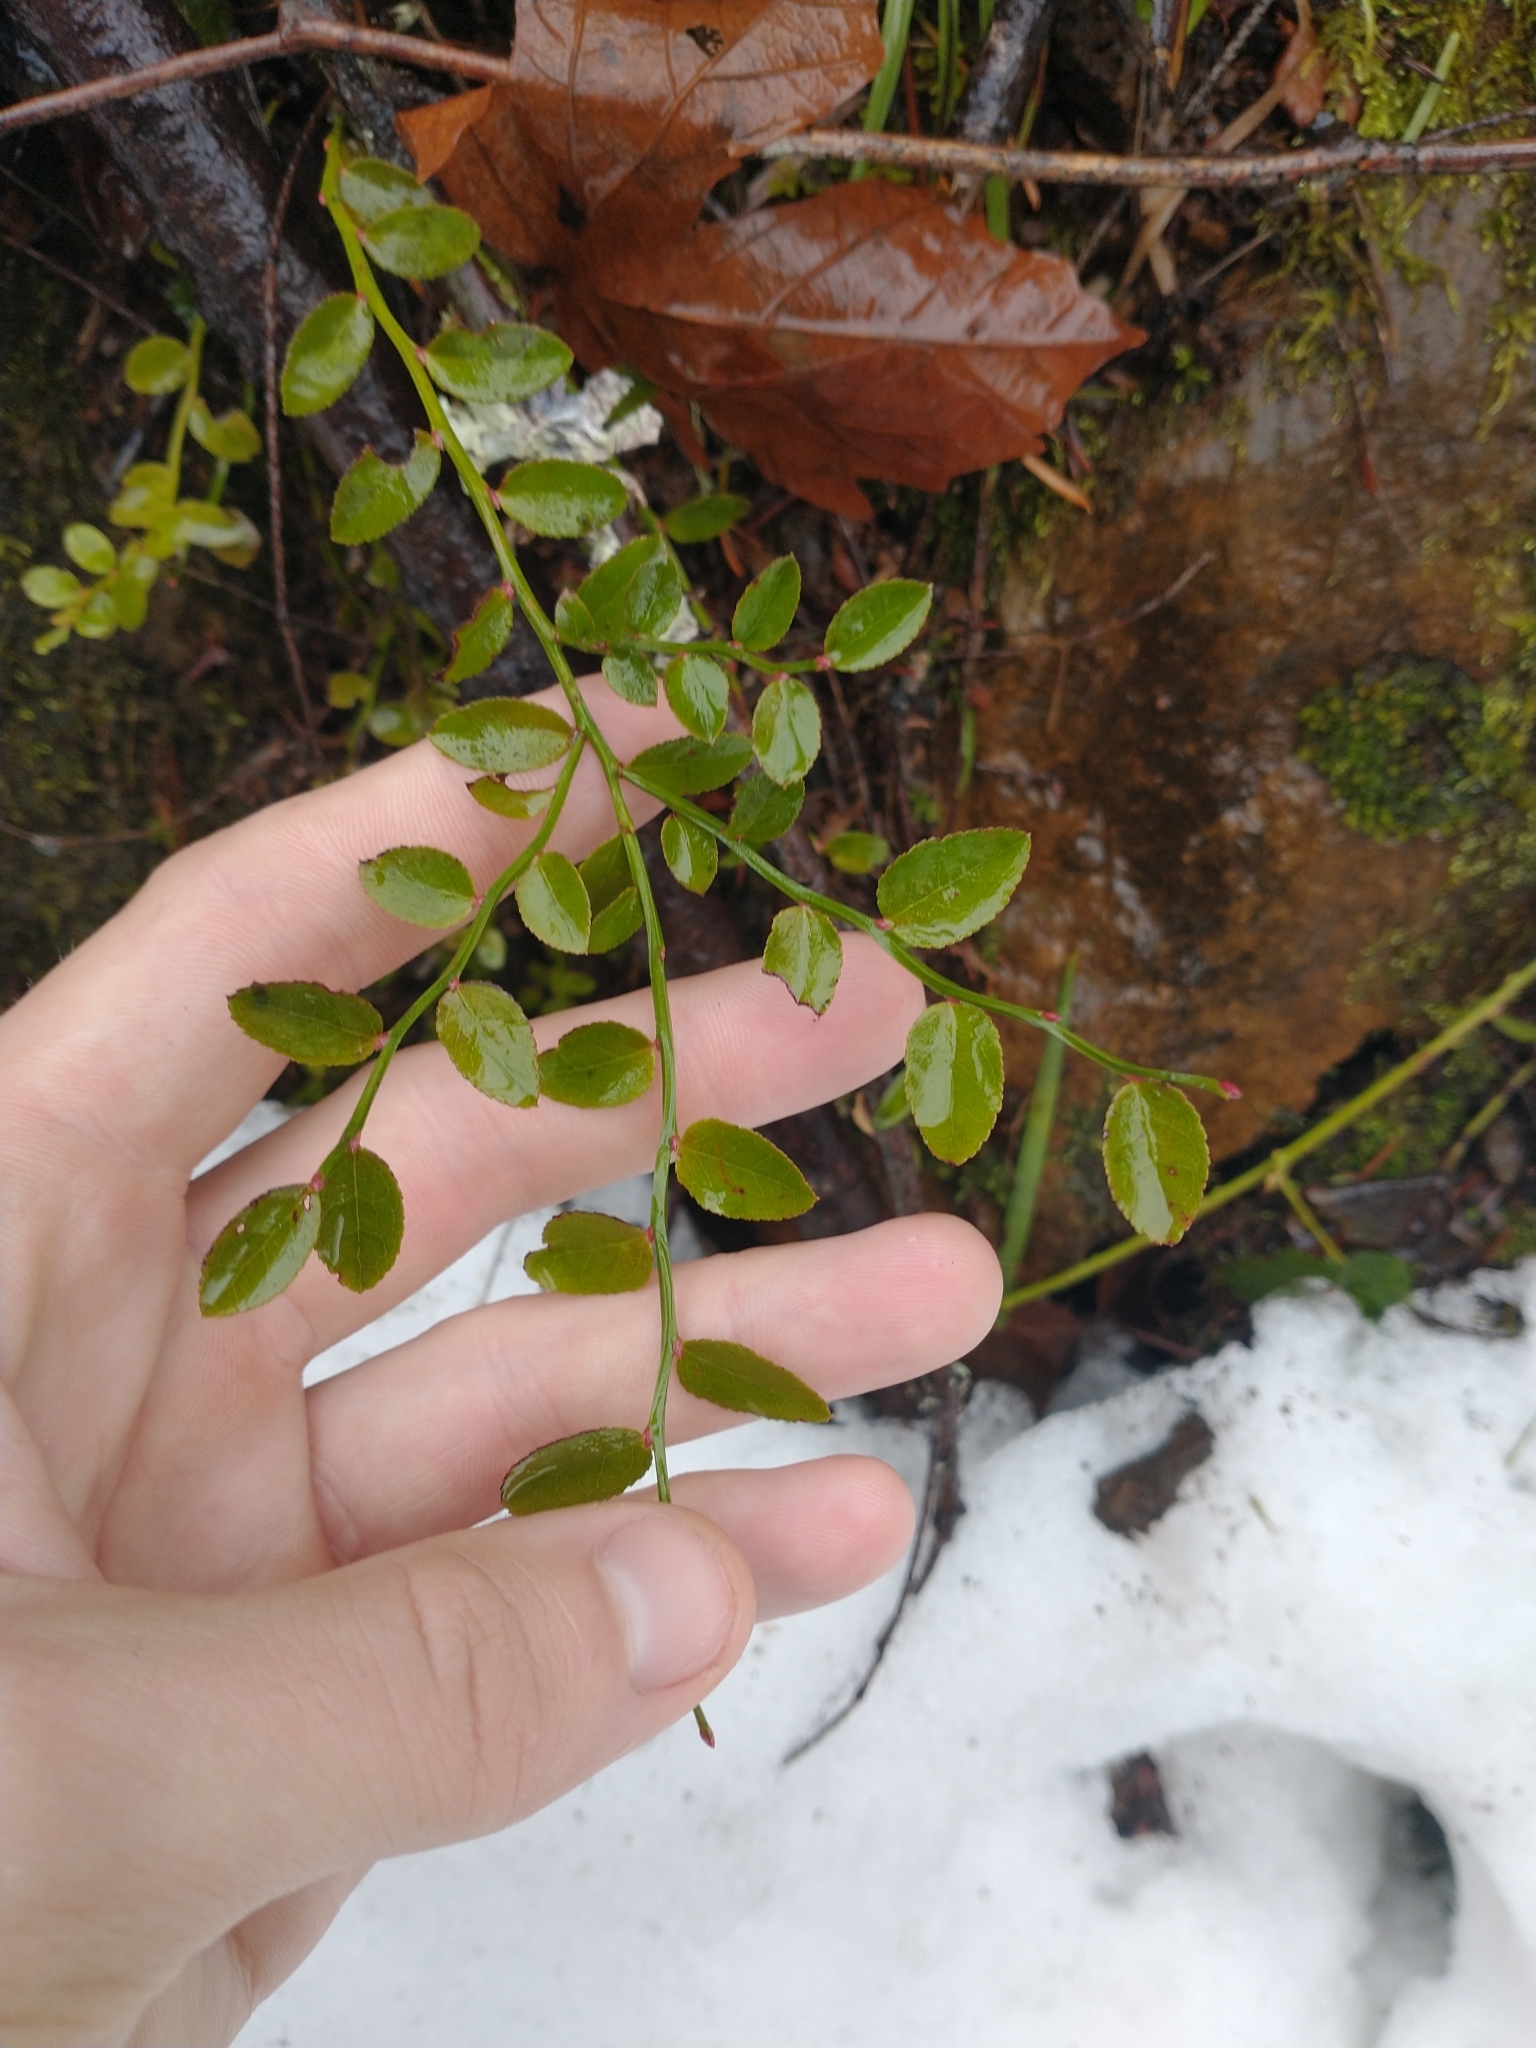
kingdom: Plantae
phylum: Tracheophyta
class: Magnoliopsida
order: Ericales
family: Ericaceae
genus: Vaccinium
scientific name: Vaccinium parvifolium
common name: Red-huckleberry
